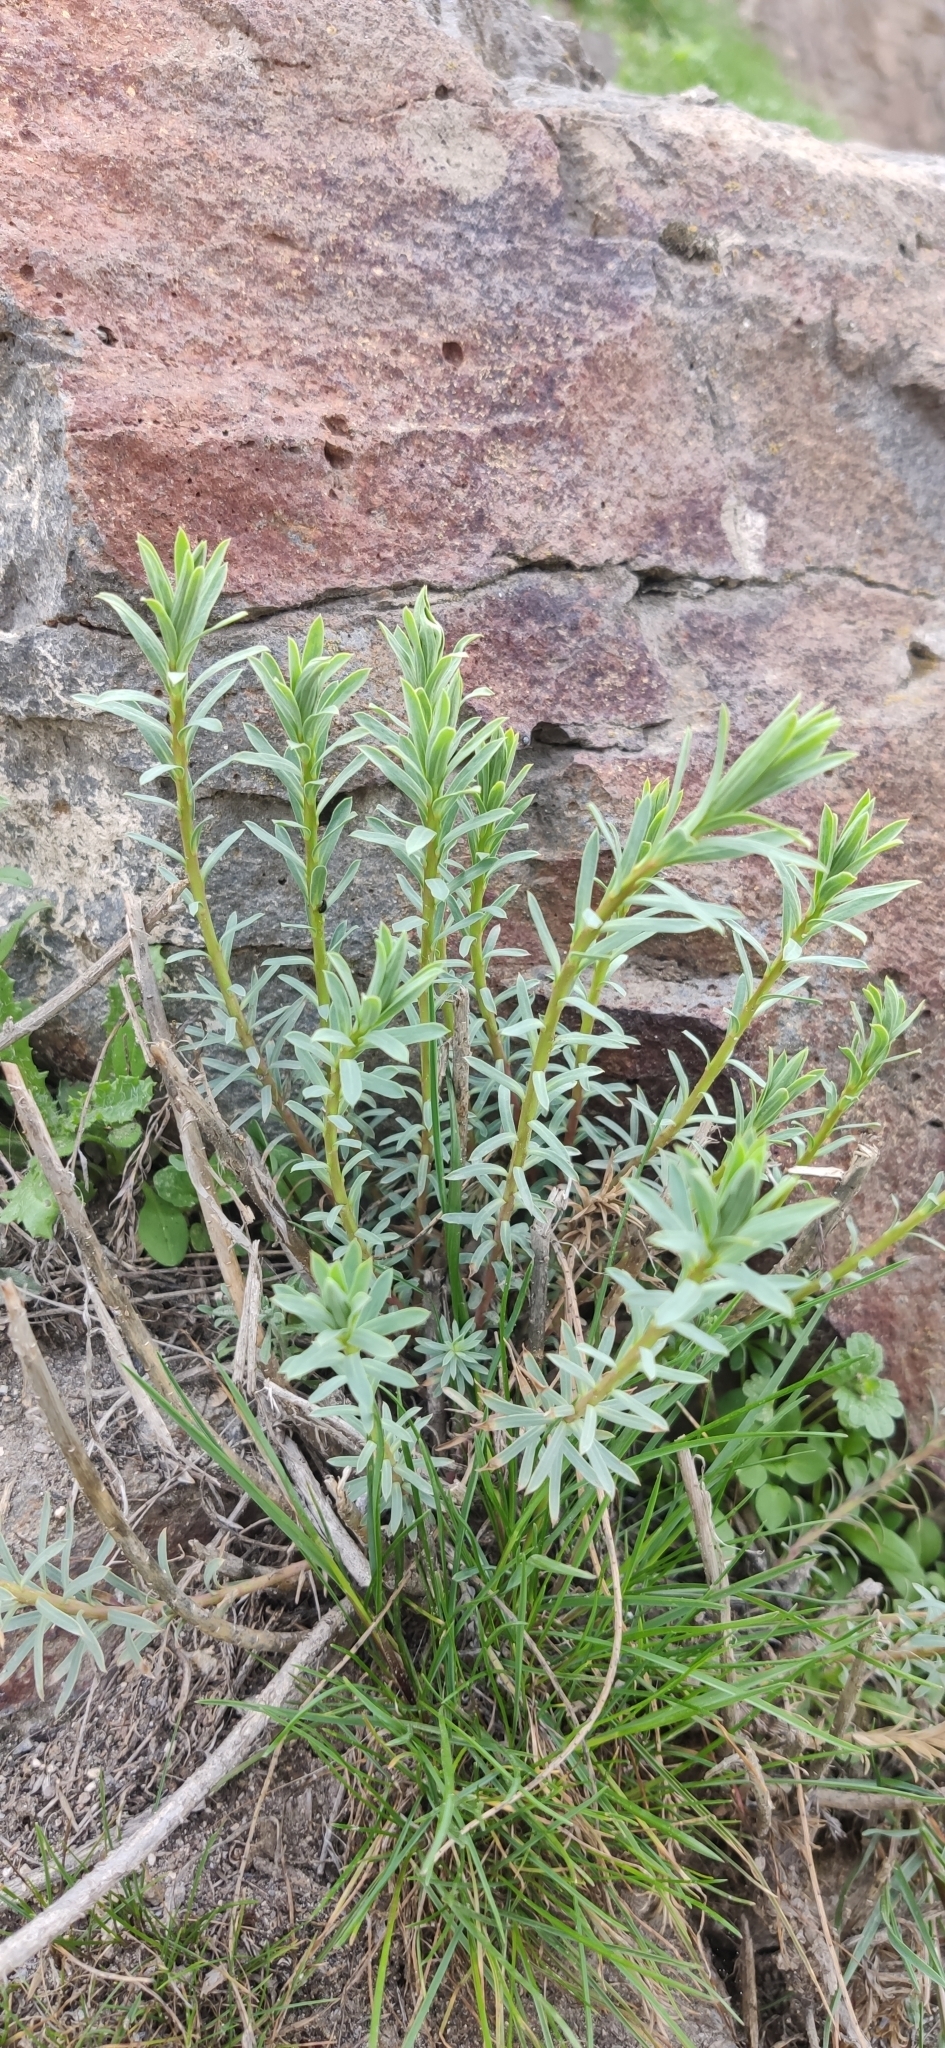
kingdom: Plantae
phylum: Tracheophyta
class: Magnoliopsida
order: Malpighiales
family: Euphorbiaceae
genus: Euphorbia
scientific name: Euphorbia seguieriana
